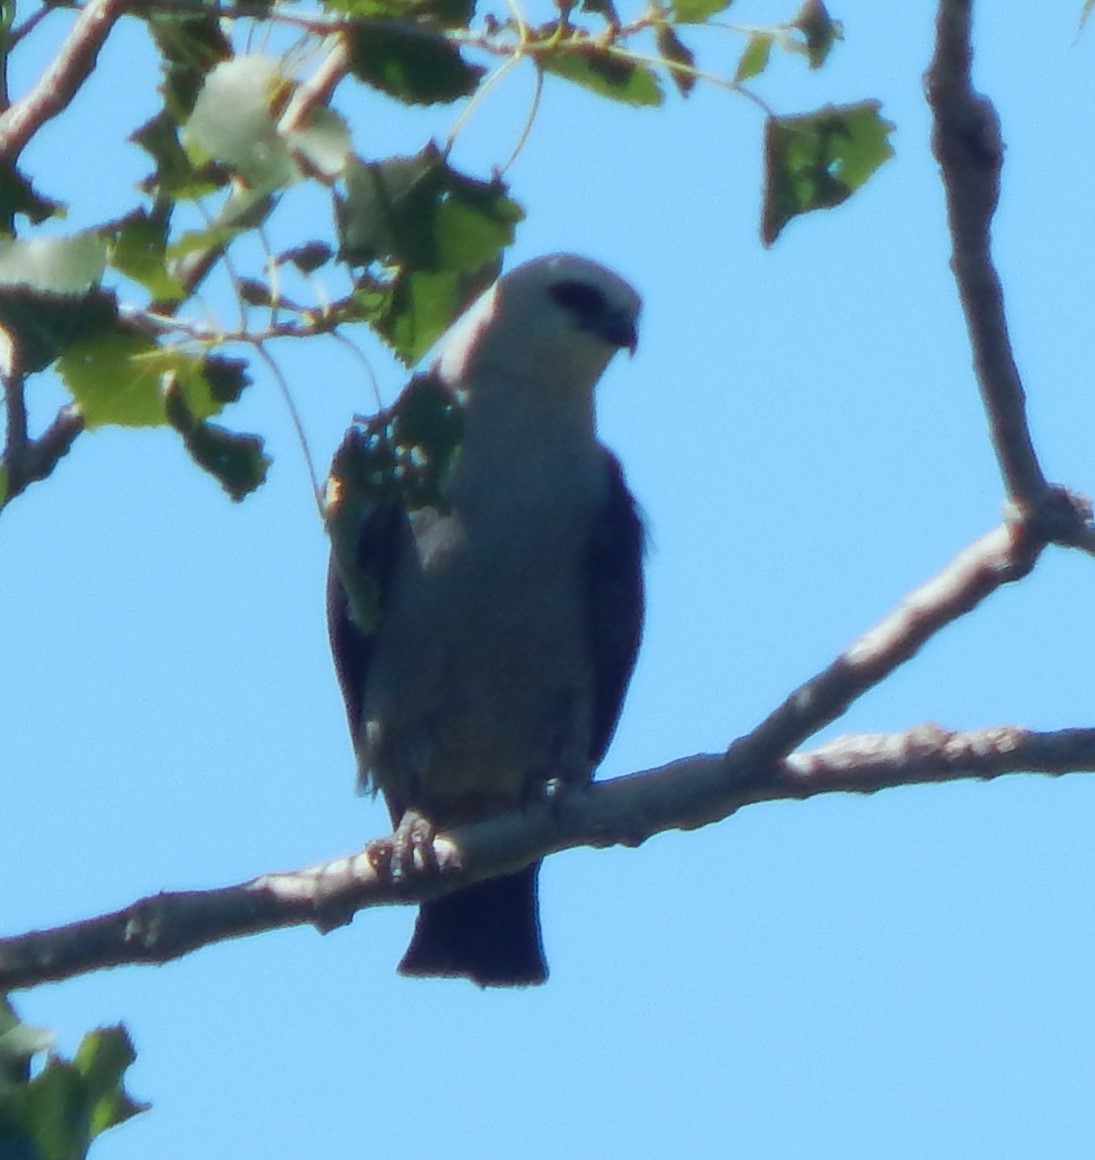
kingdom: Animalia
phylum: Chordata
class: Aves
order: Accipitriformes
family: Accipitridae
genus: Ictinia
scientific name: Ictinia mississippiensis
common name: Mississippi kite
